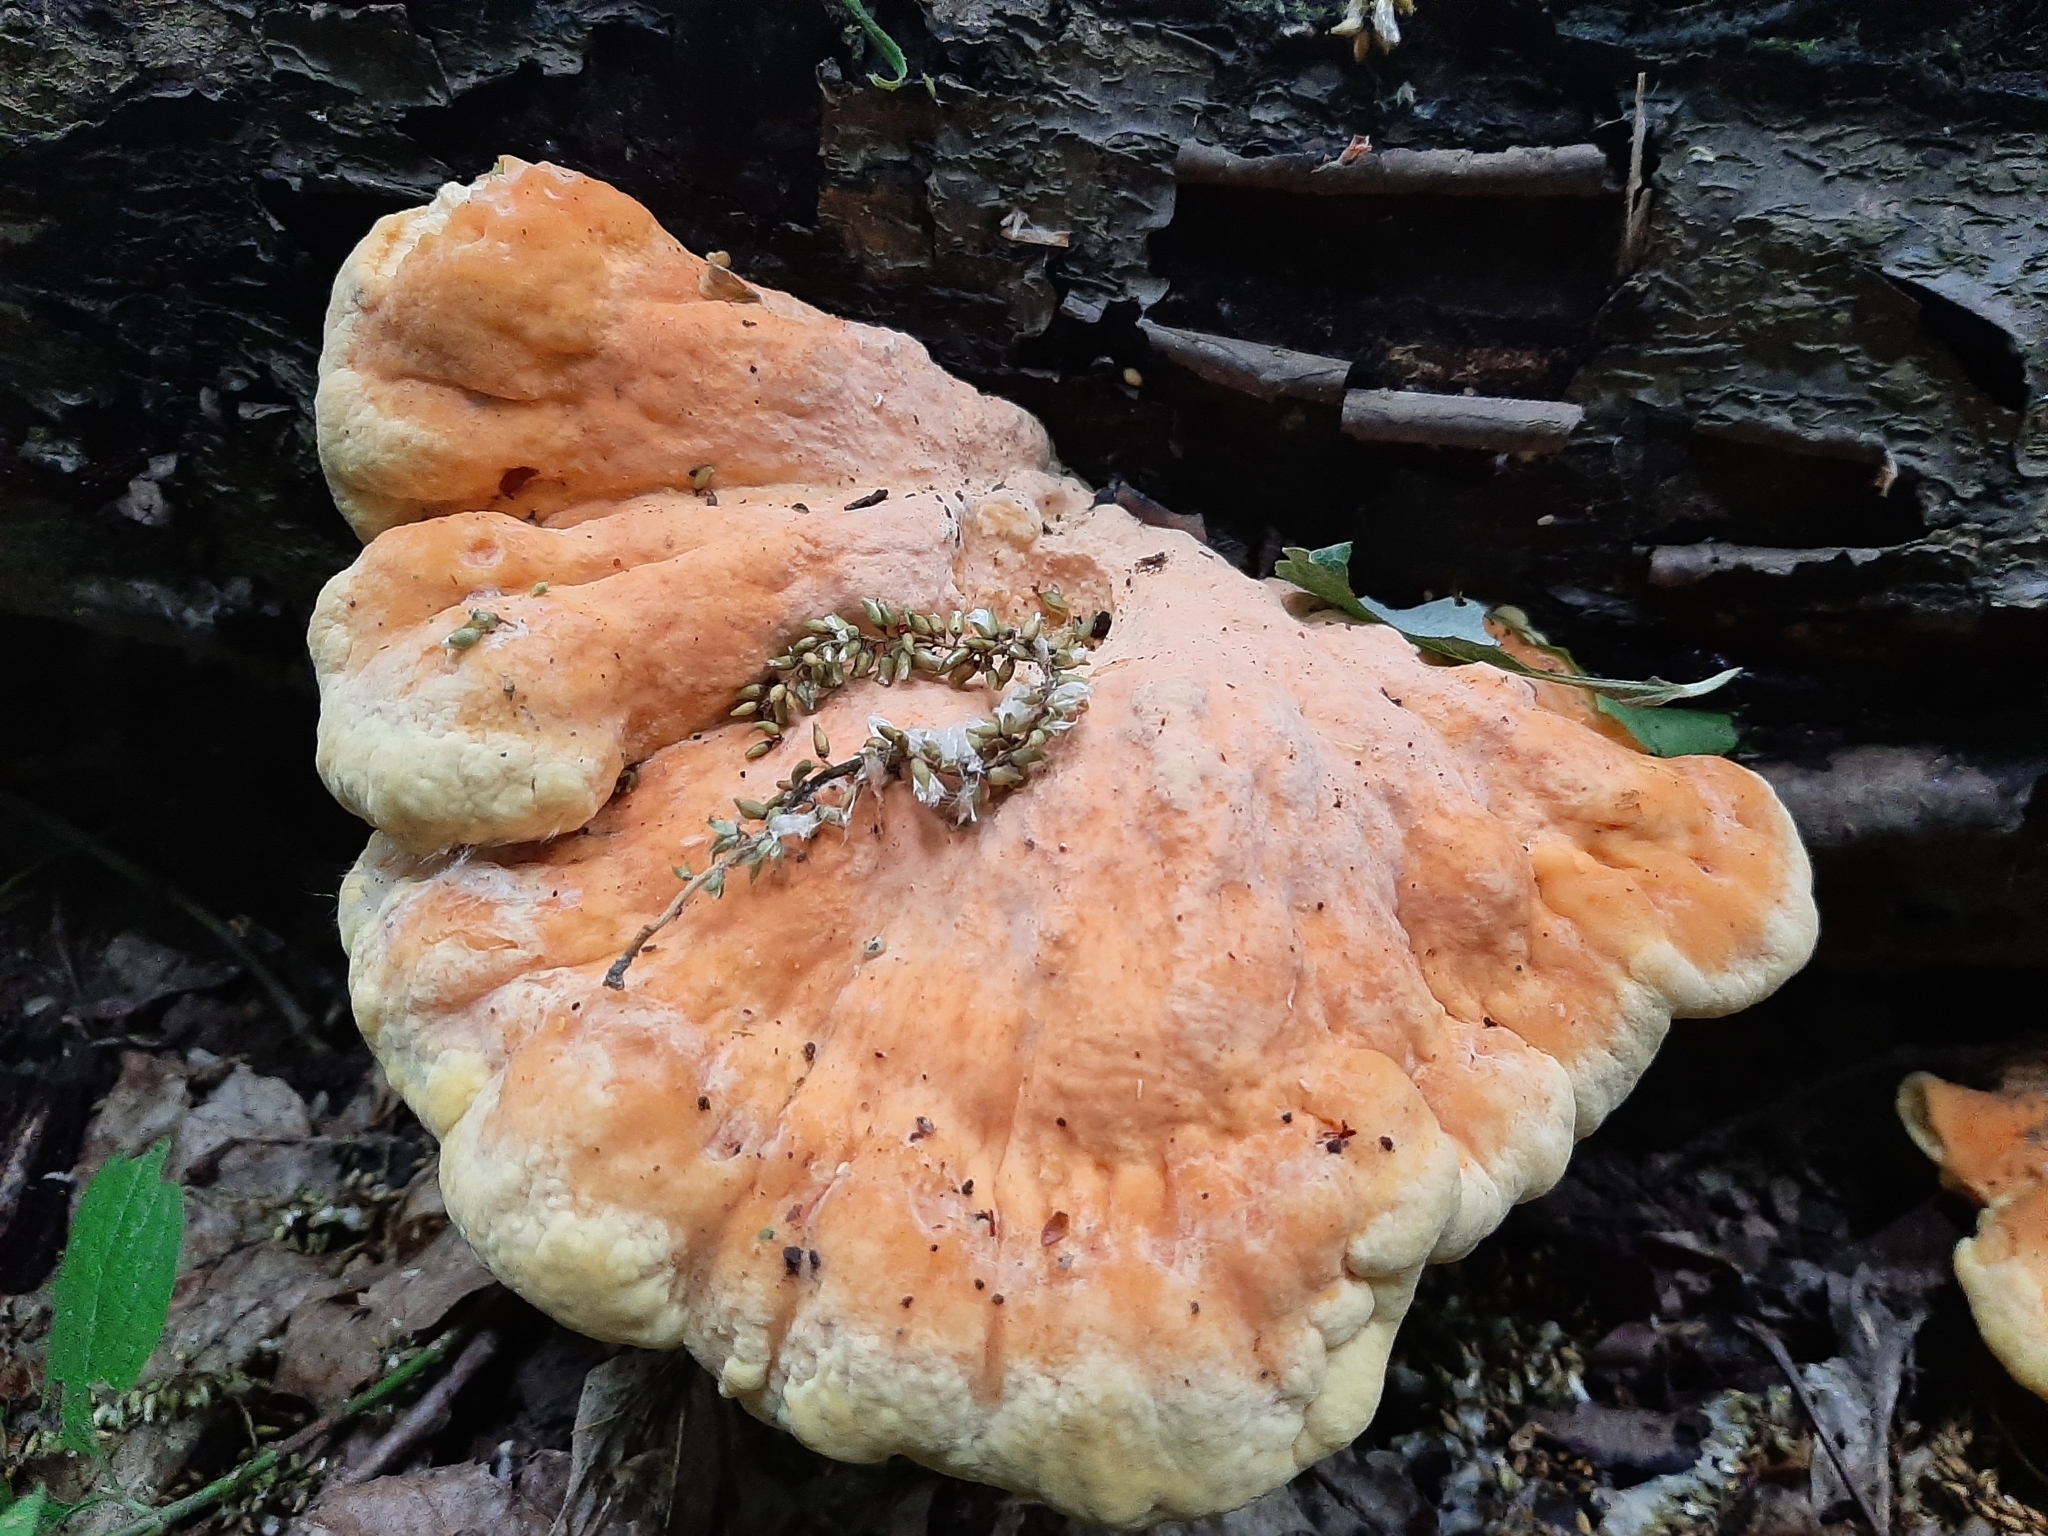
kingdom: Fungi
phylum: Basidiomycota
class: Agaricomycetes
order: Polyporales
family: Laetiporaceae
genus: Laetiporus
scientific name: Laetiporus sulphureus
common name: Chicken of the woods
